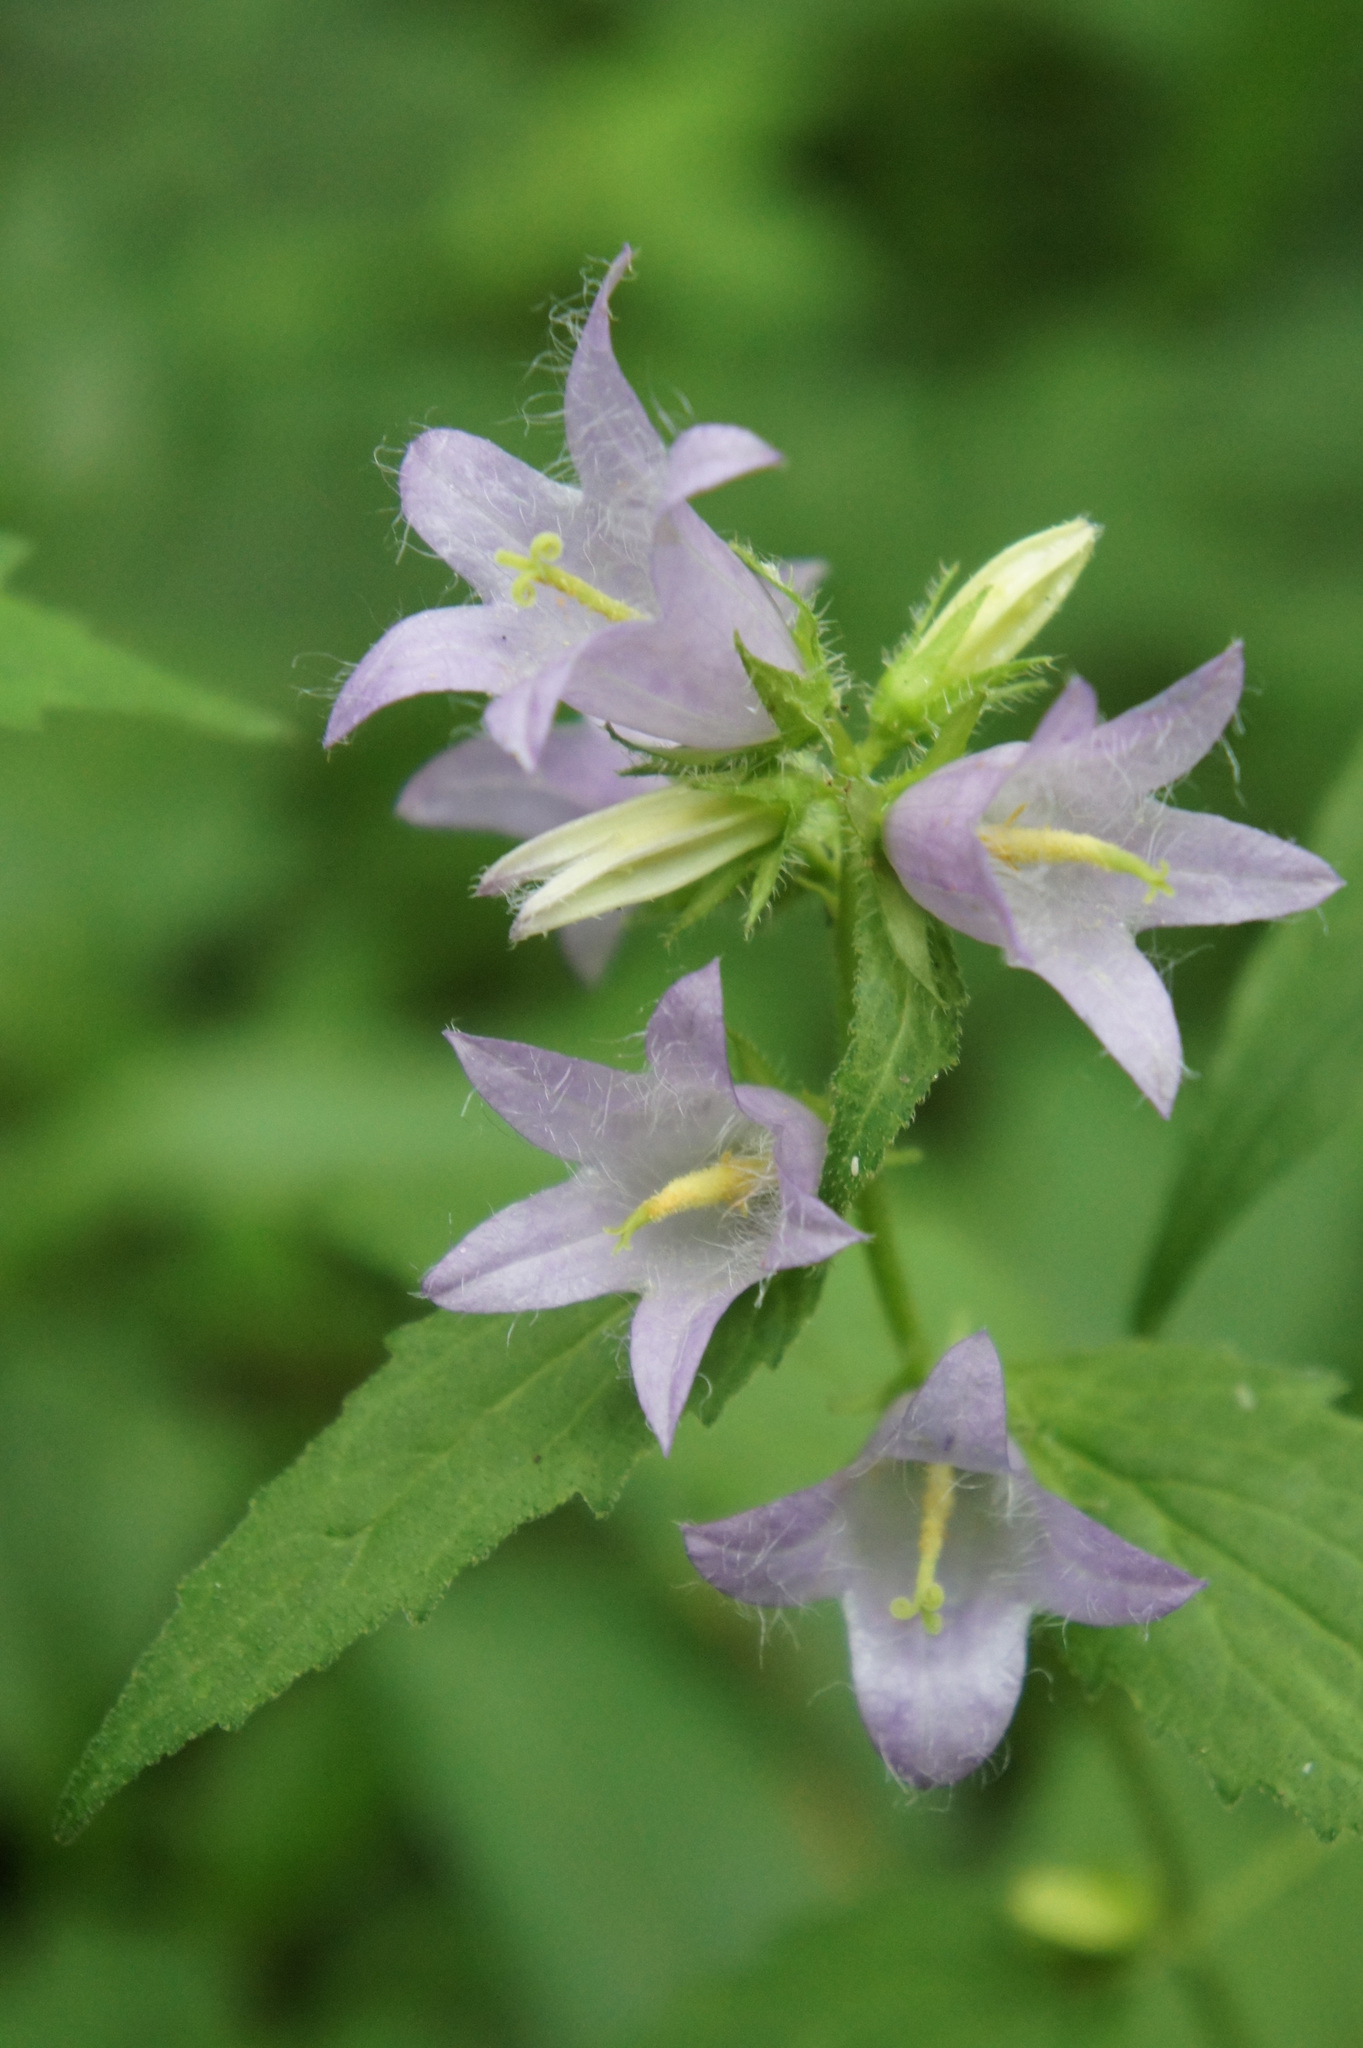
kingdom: Plantae
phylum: Tracheophyta
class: Magnoliopsida
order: Asterales
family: Campanulaceae
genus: Campanula
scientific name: Campanula trachelium
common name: Nettle-leaved bellflower
